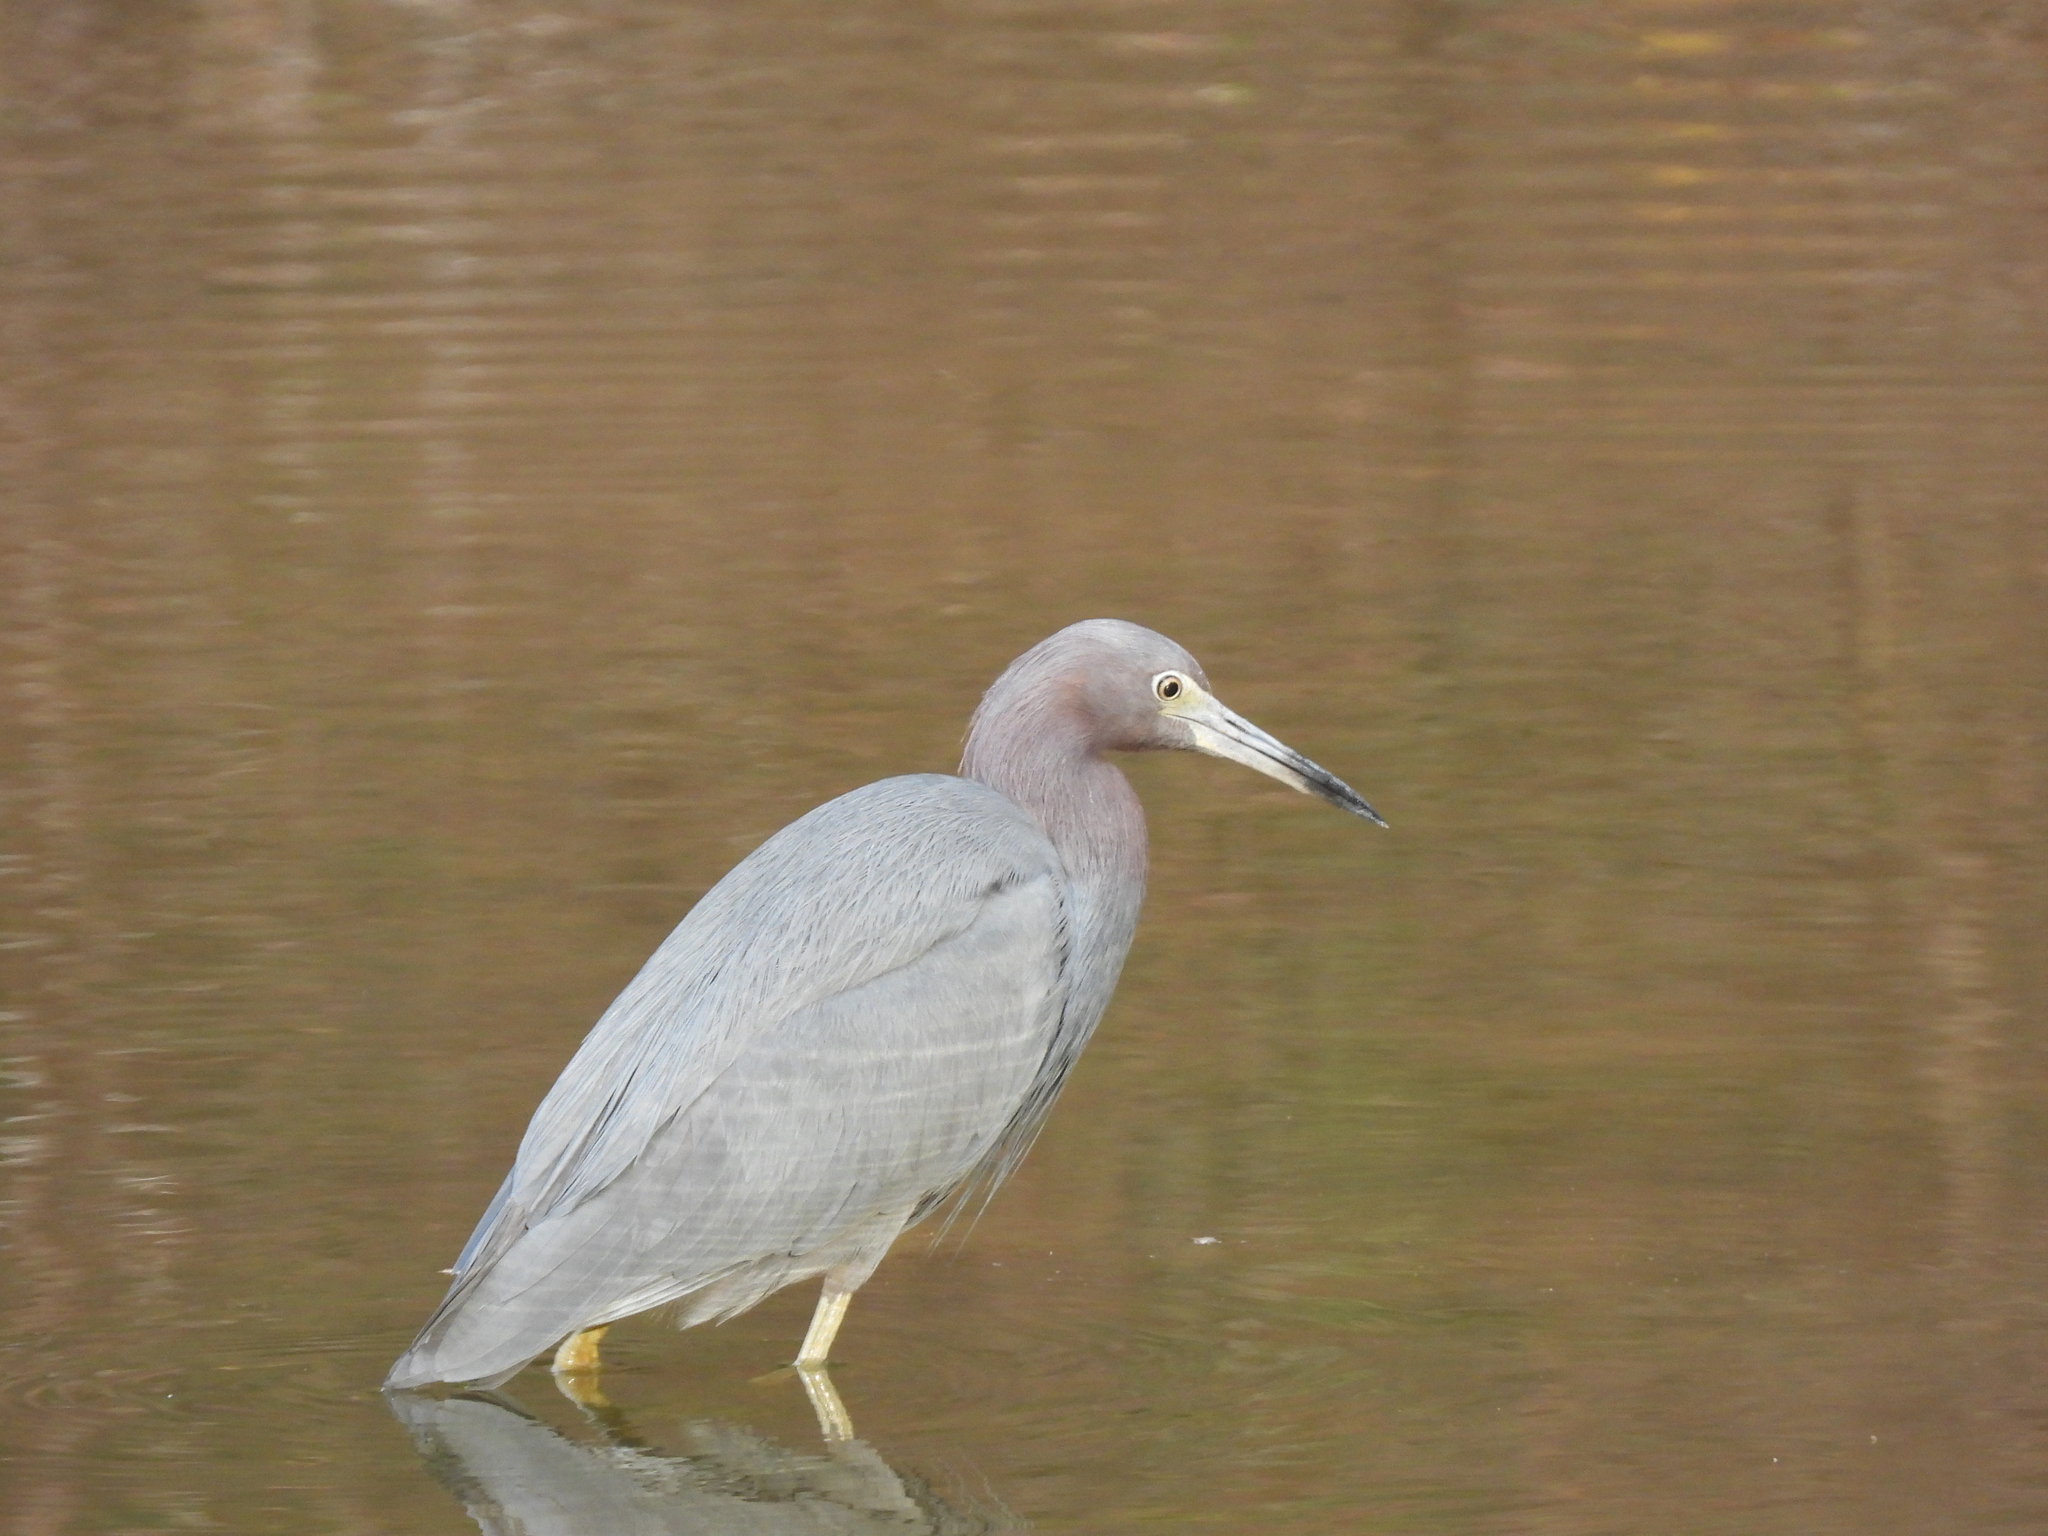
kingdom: Animalia
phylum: Chordata
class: Aves
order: Pelecaniformes
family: Ardeidae
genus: Egretta
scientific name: Egretta caerulea
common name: Little blue heron
